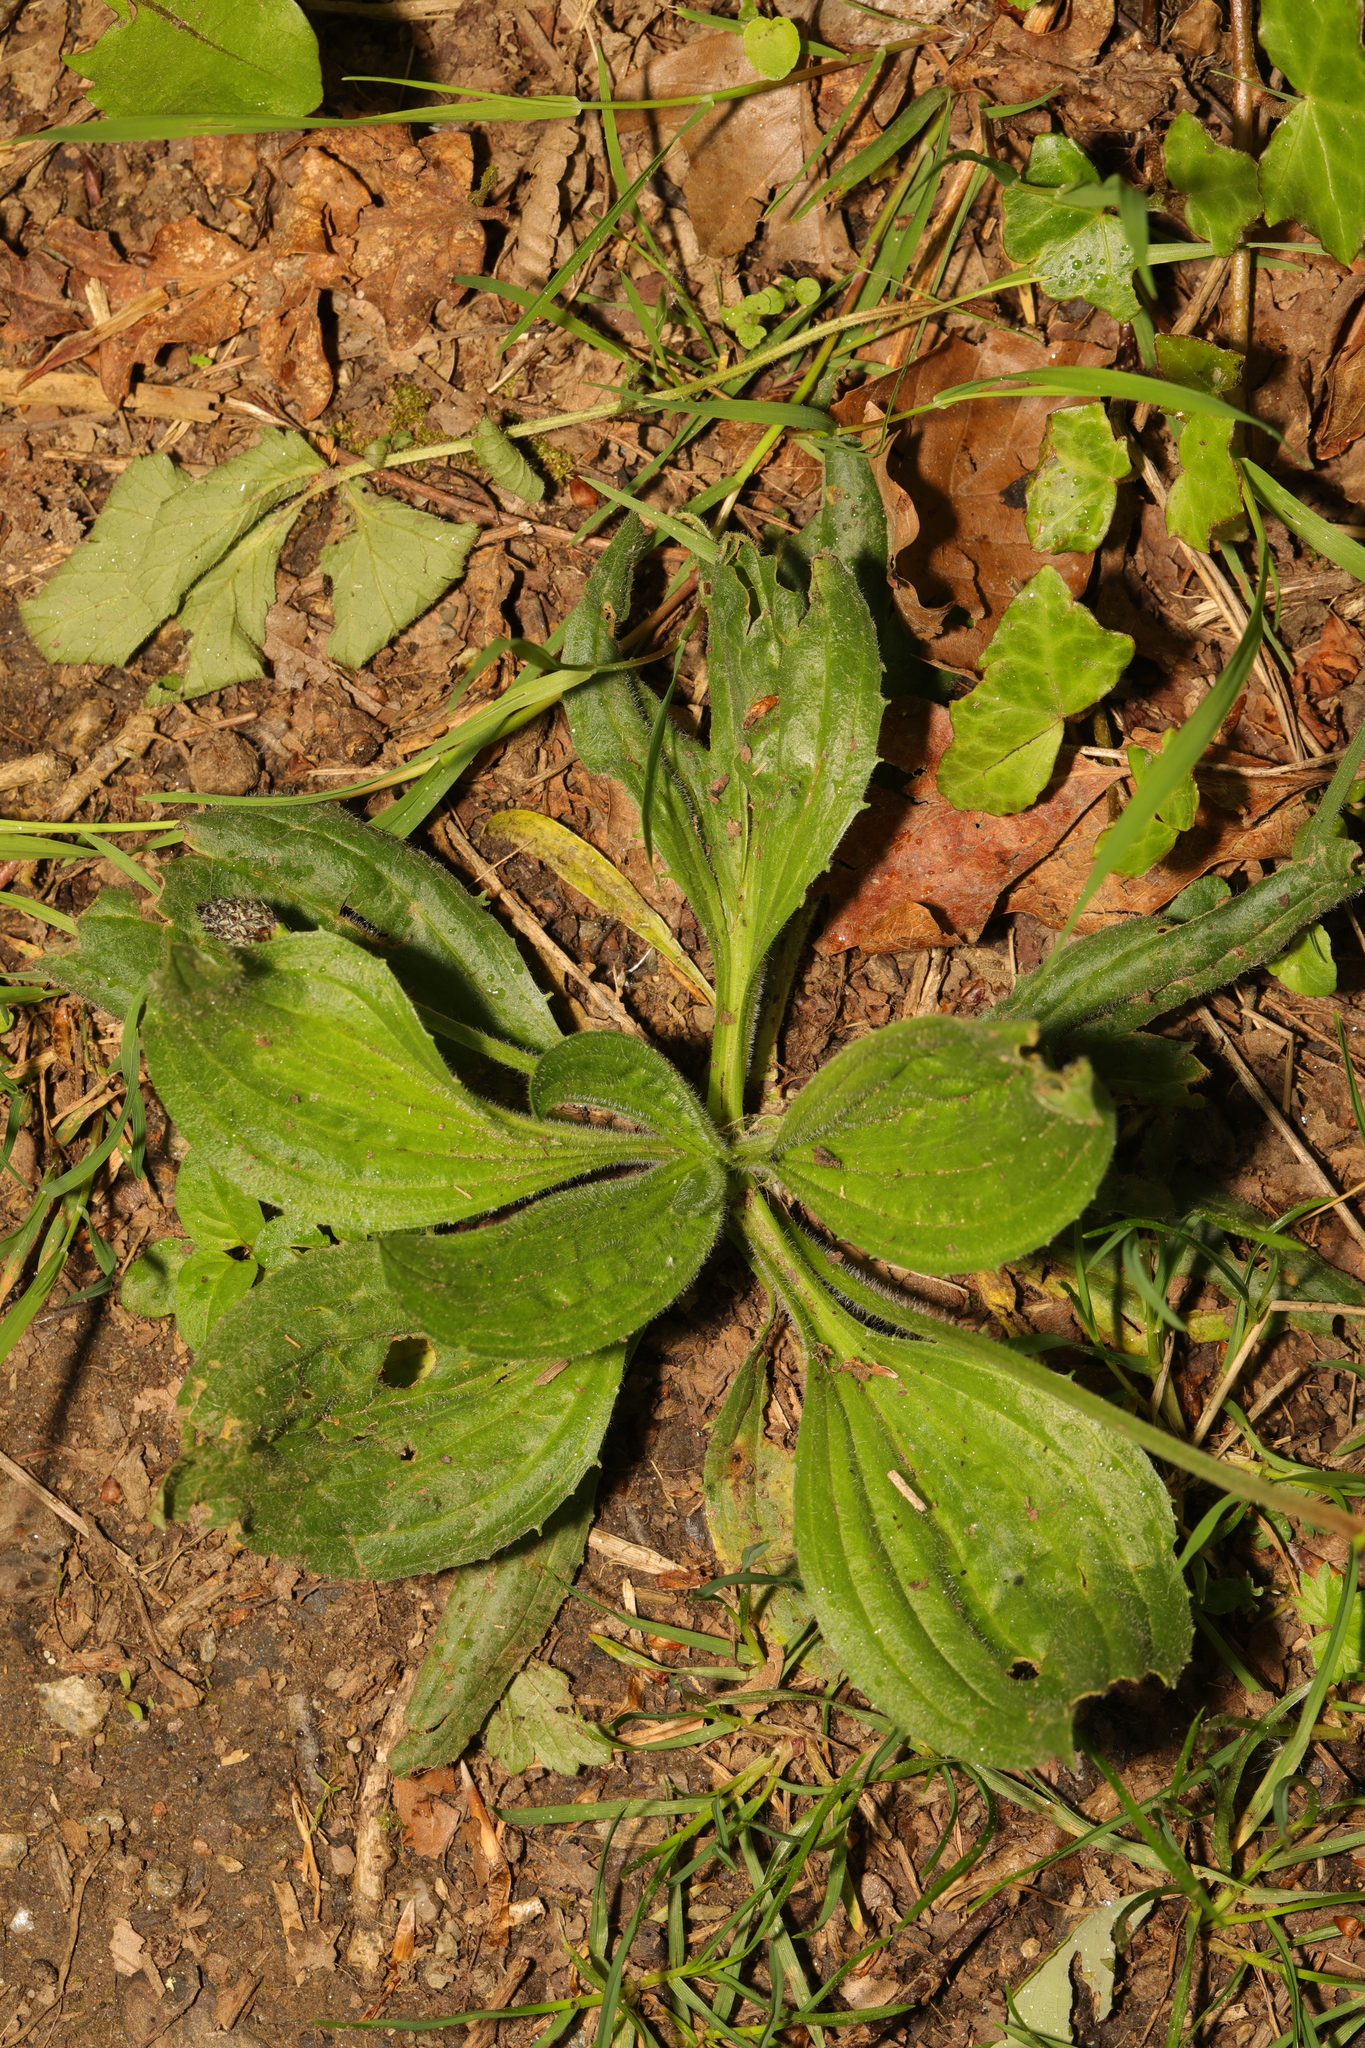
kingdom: Plantae
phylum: Tracheophyta
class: Magnoliopsida
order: Lamiales
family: Plantaginaceae
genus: Plantago
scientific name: Plantago major
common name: Common plantain
